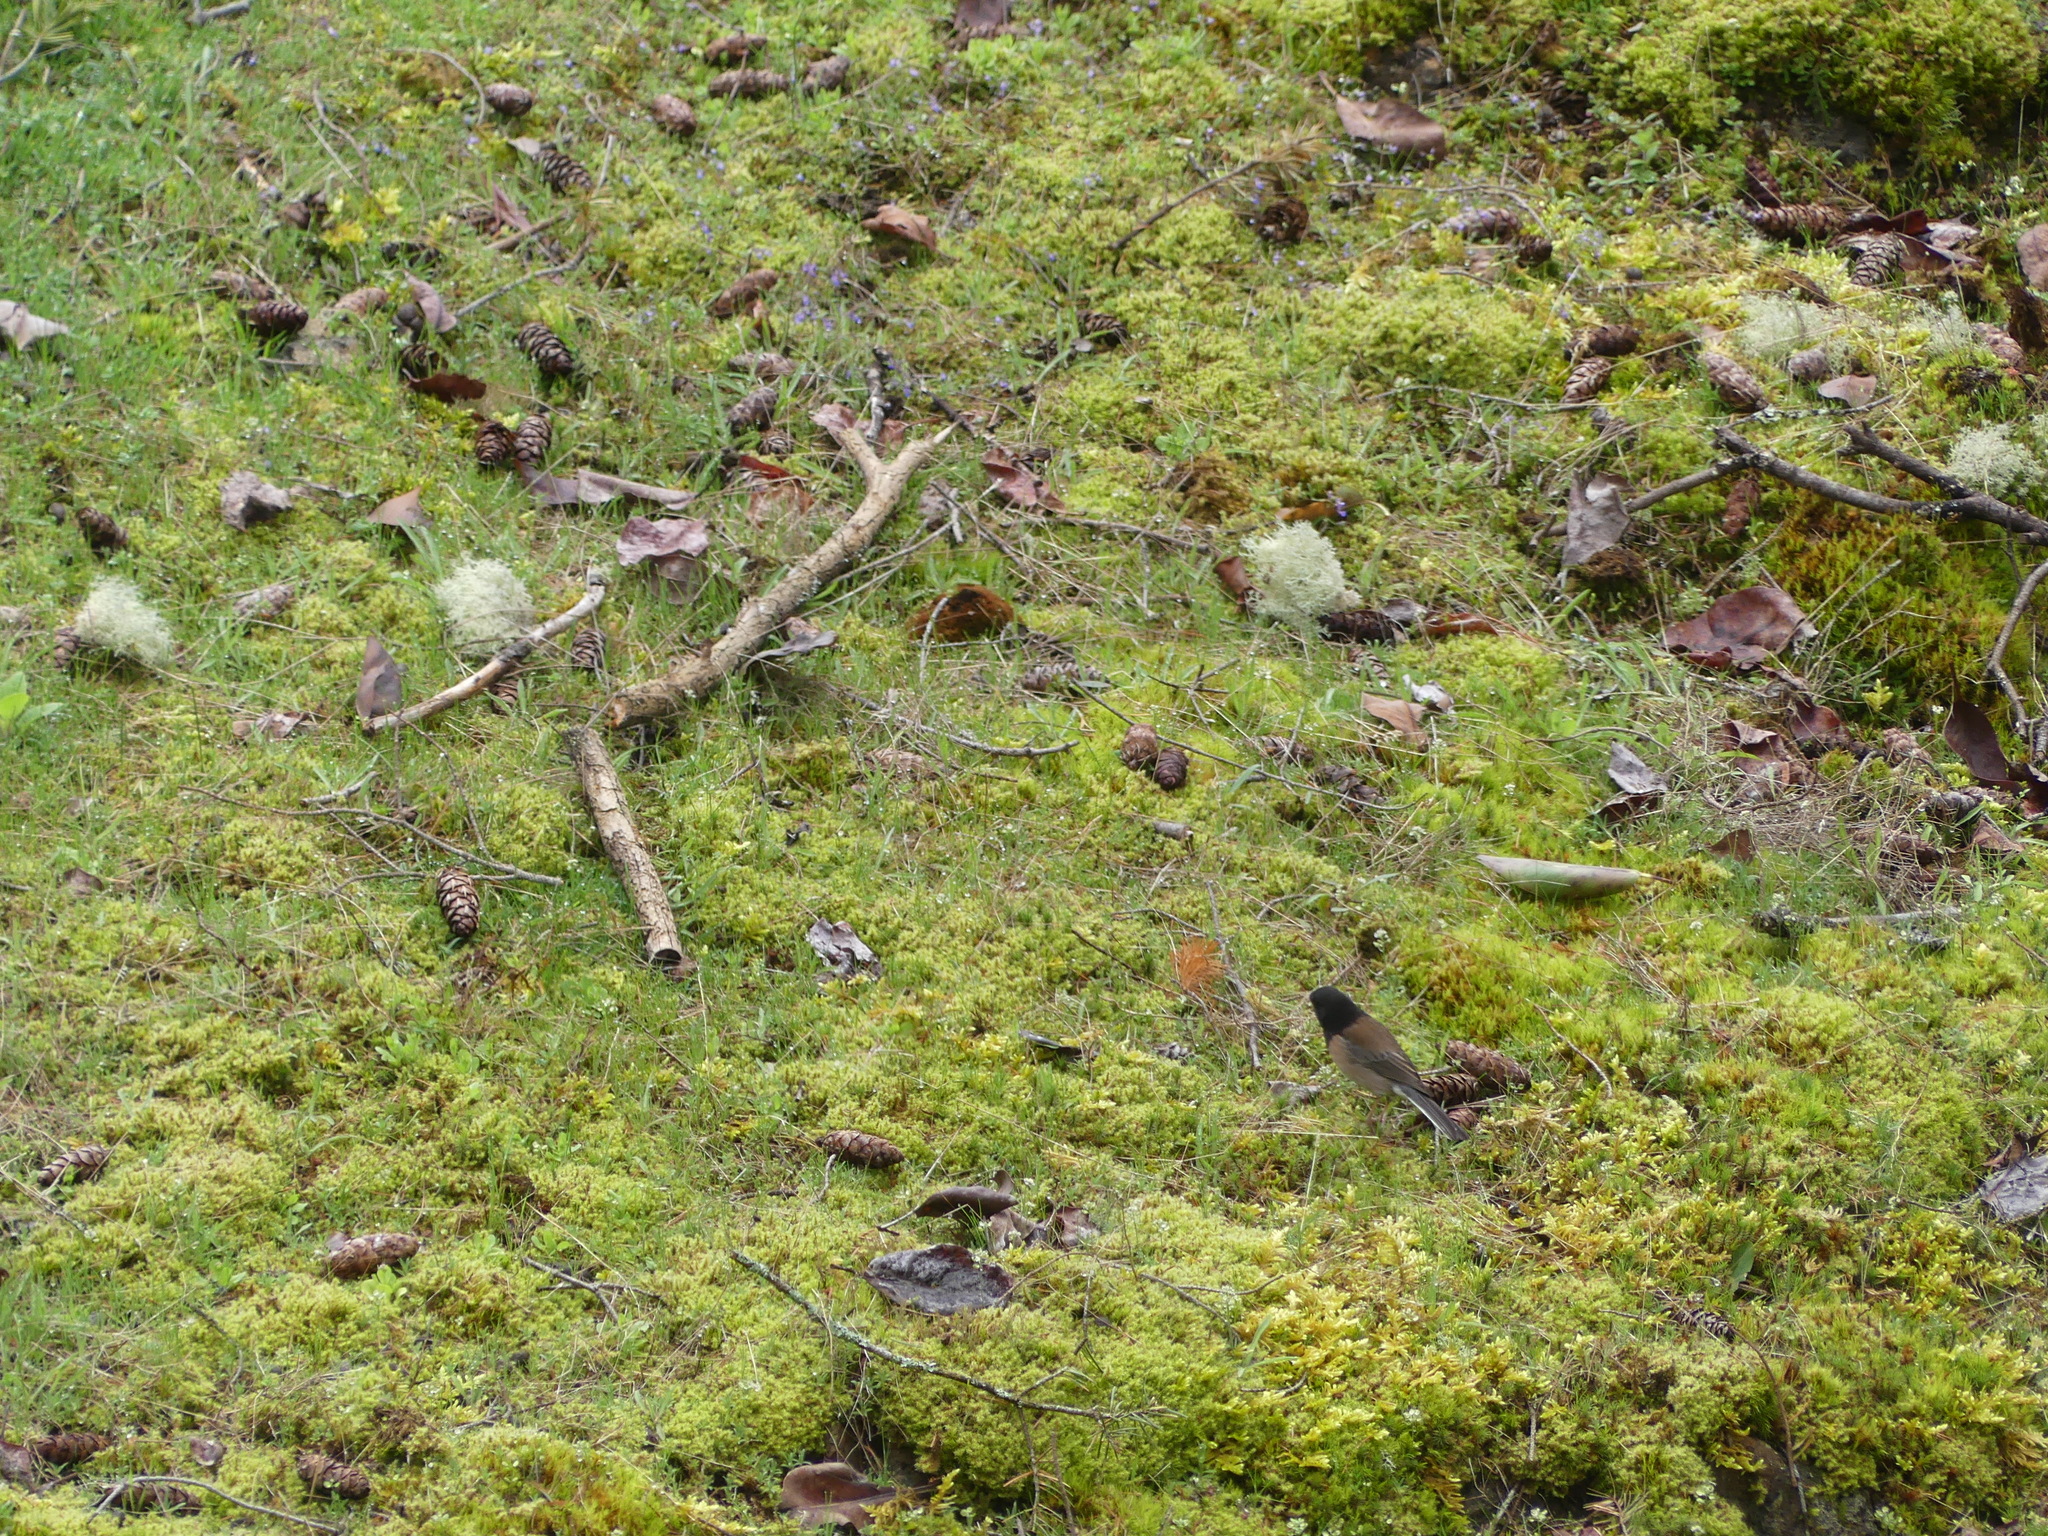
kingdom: Animalia
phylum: Chordata
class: Aves
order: Passeriformes
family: Passerellidae
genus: Junco
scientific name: Junco hyemalis
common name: Dark-eyed junco
